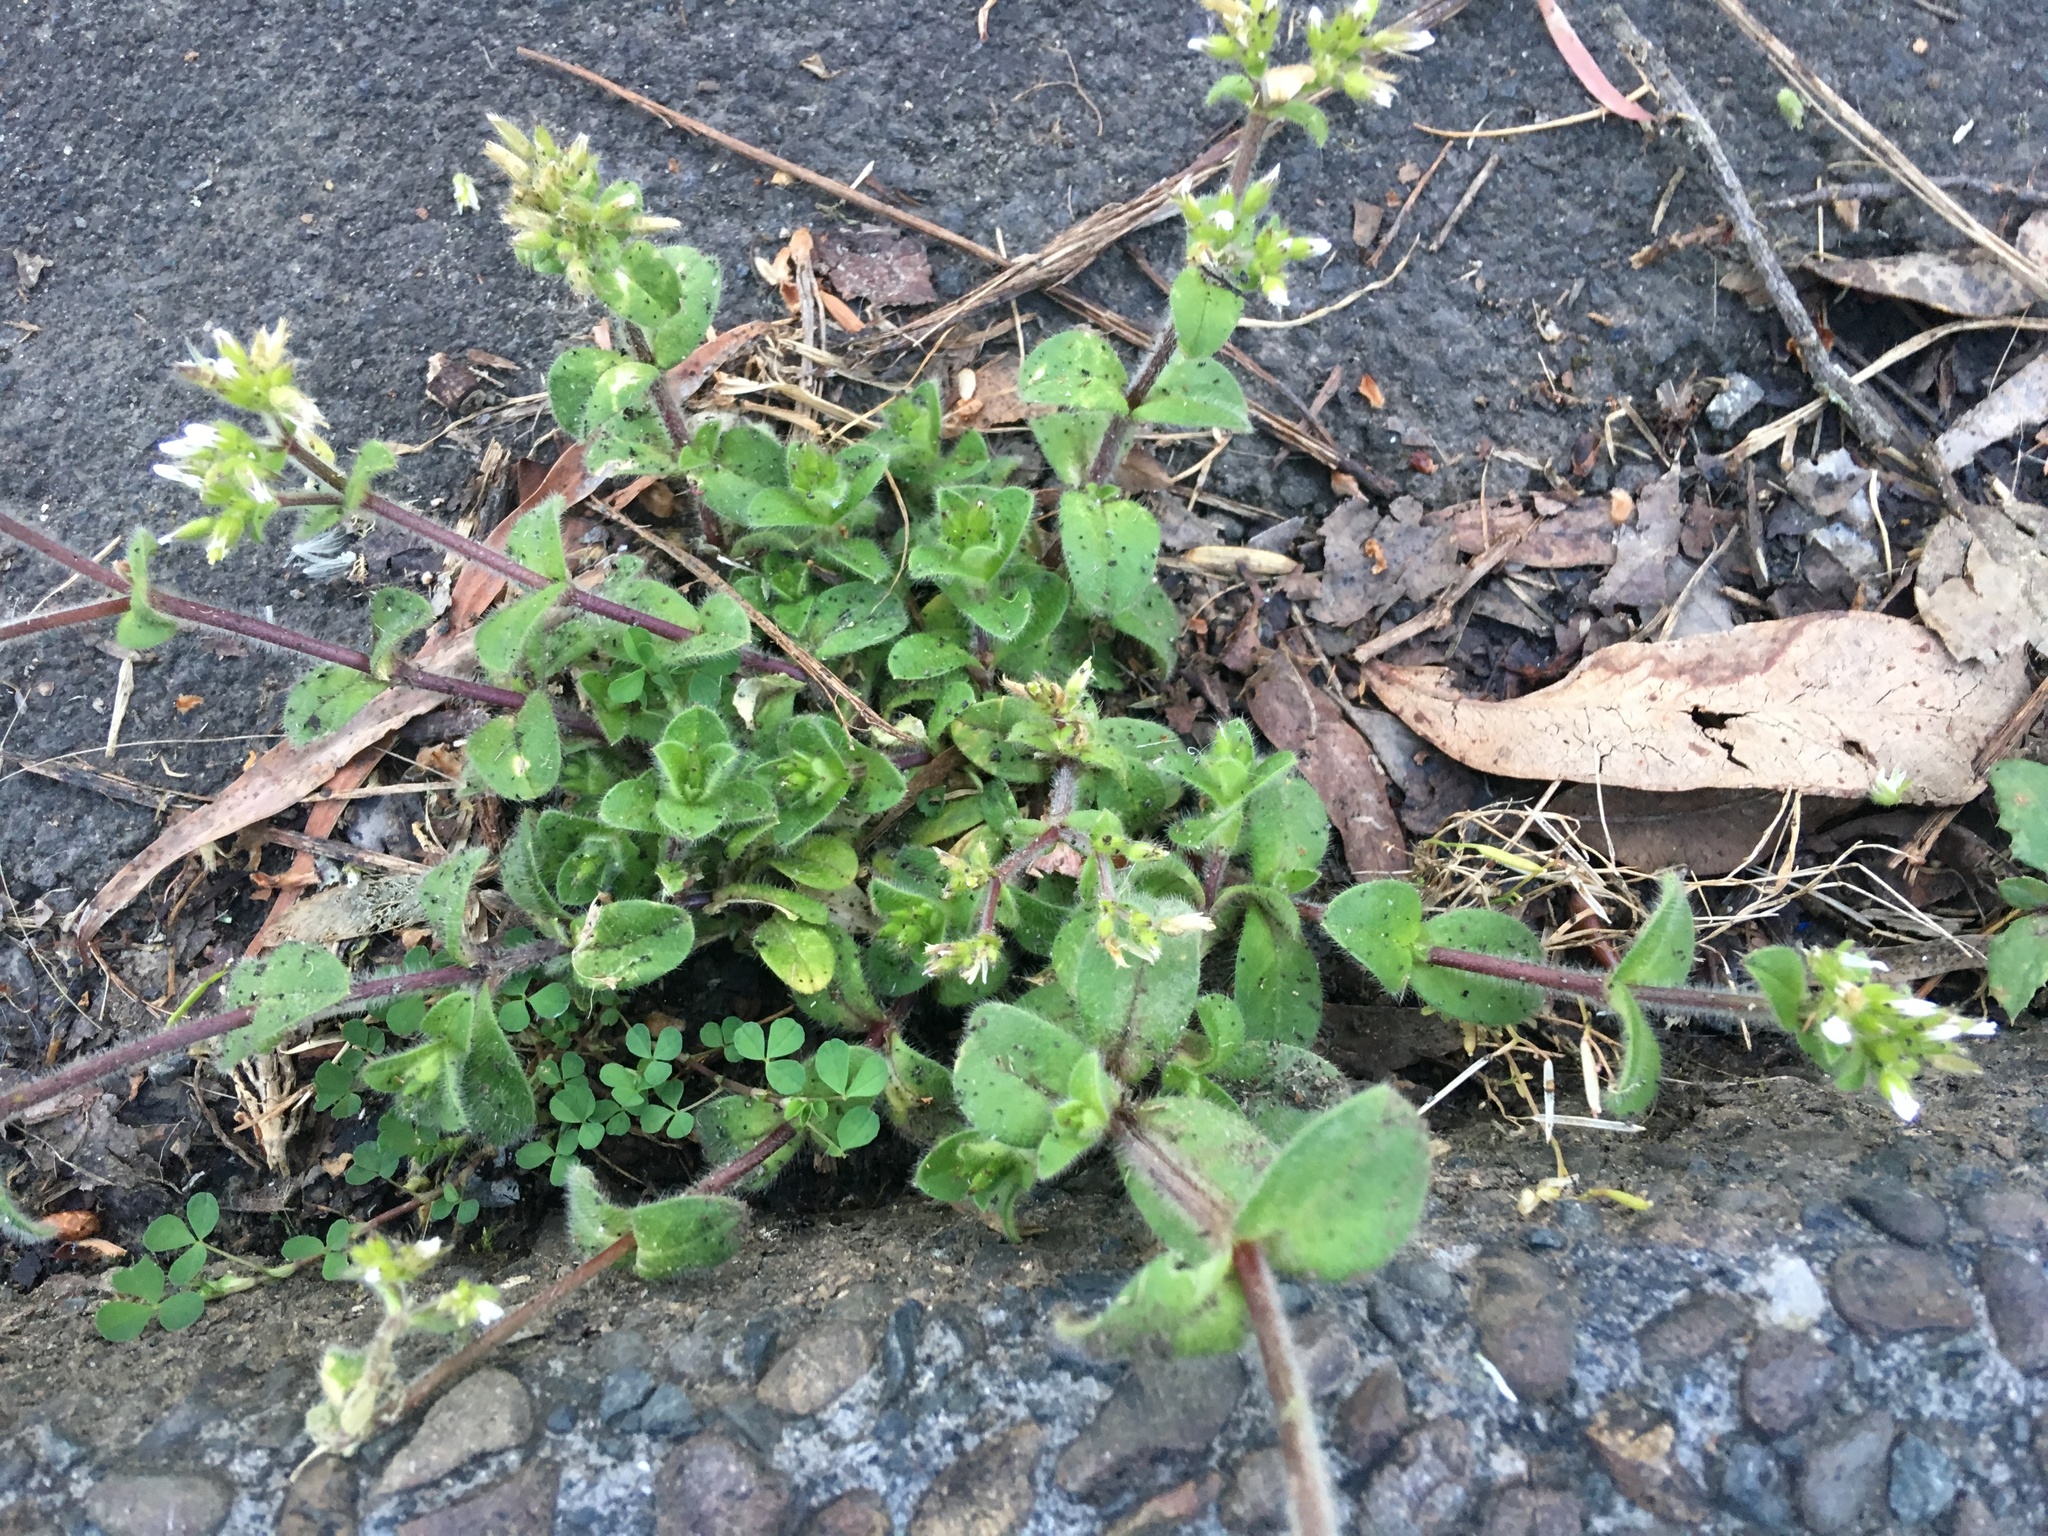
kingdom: Plantae
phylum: Tracheophyta
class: Magnoliopsida
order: Caryophyllales
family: Caryophyllaceae
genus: Cerastium
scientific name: Cerastium fontanum
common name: Common mouse-ear
